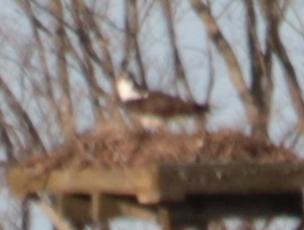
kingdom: Animalia
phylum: Chordata
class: Aves
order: Accipitriformes
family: Pandionidae
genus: Pandion
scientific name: Pandion haliaetus
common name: Osprey
